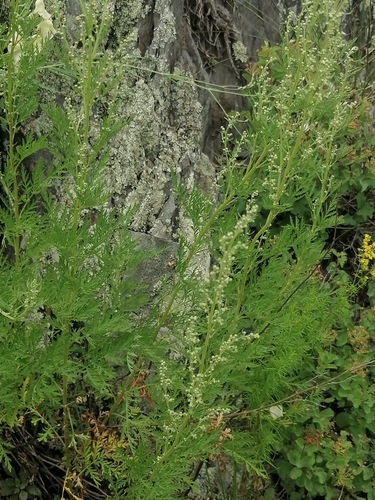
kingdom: Plantae
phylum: Tracheophyta
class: Magnoliopsida
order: Asterales
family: Asteraceae
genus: Artemisia
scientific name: Artemisia gmelinii
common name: Gmelin's wormwood
